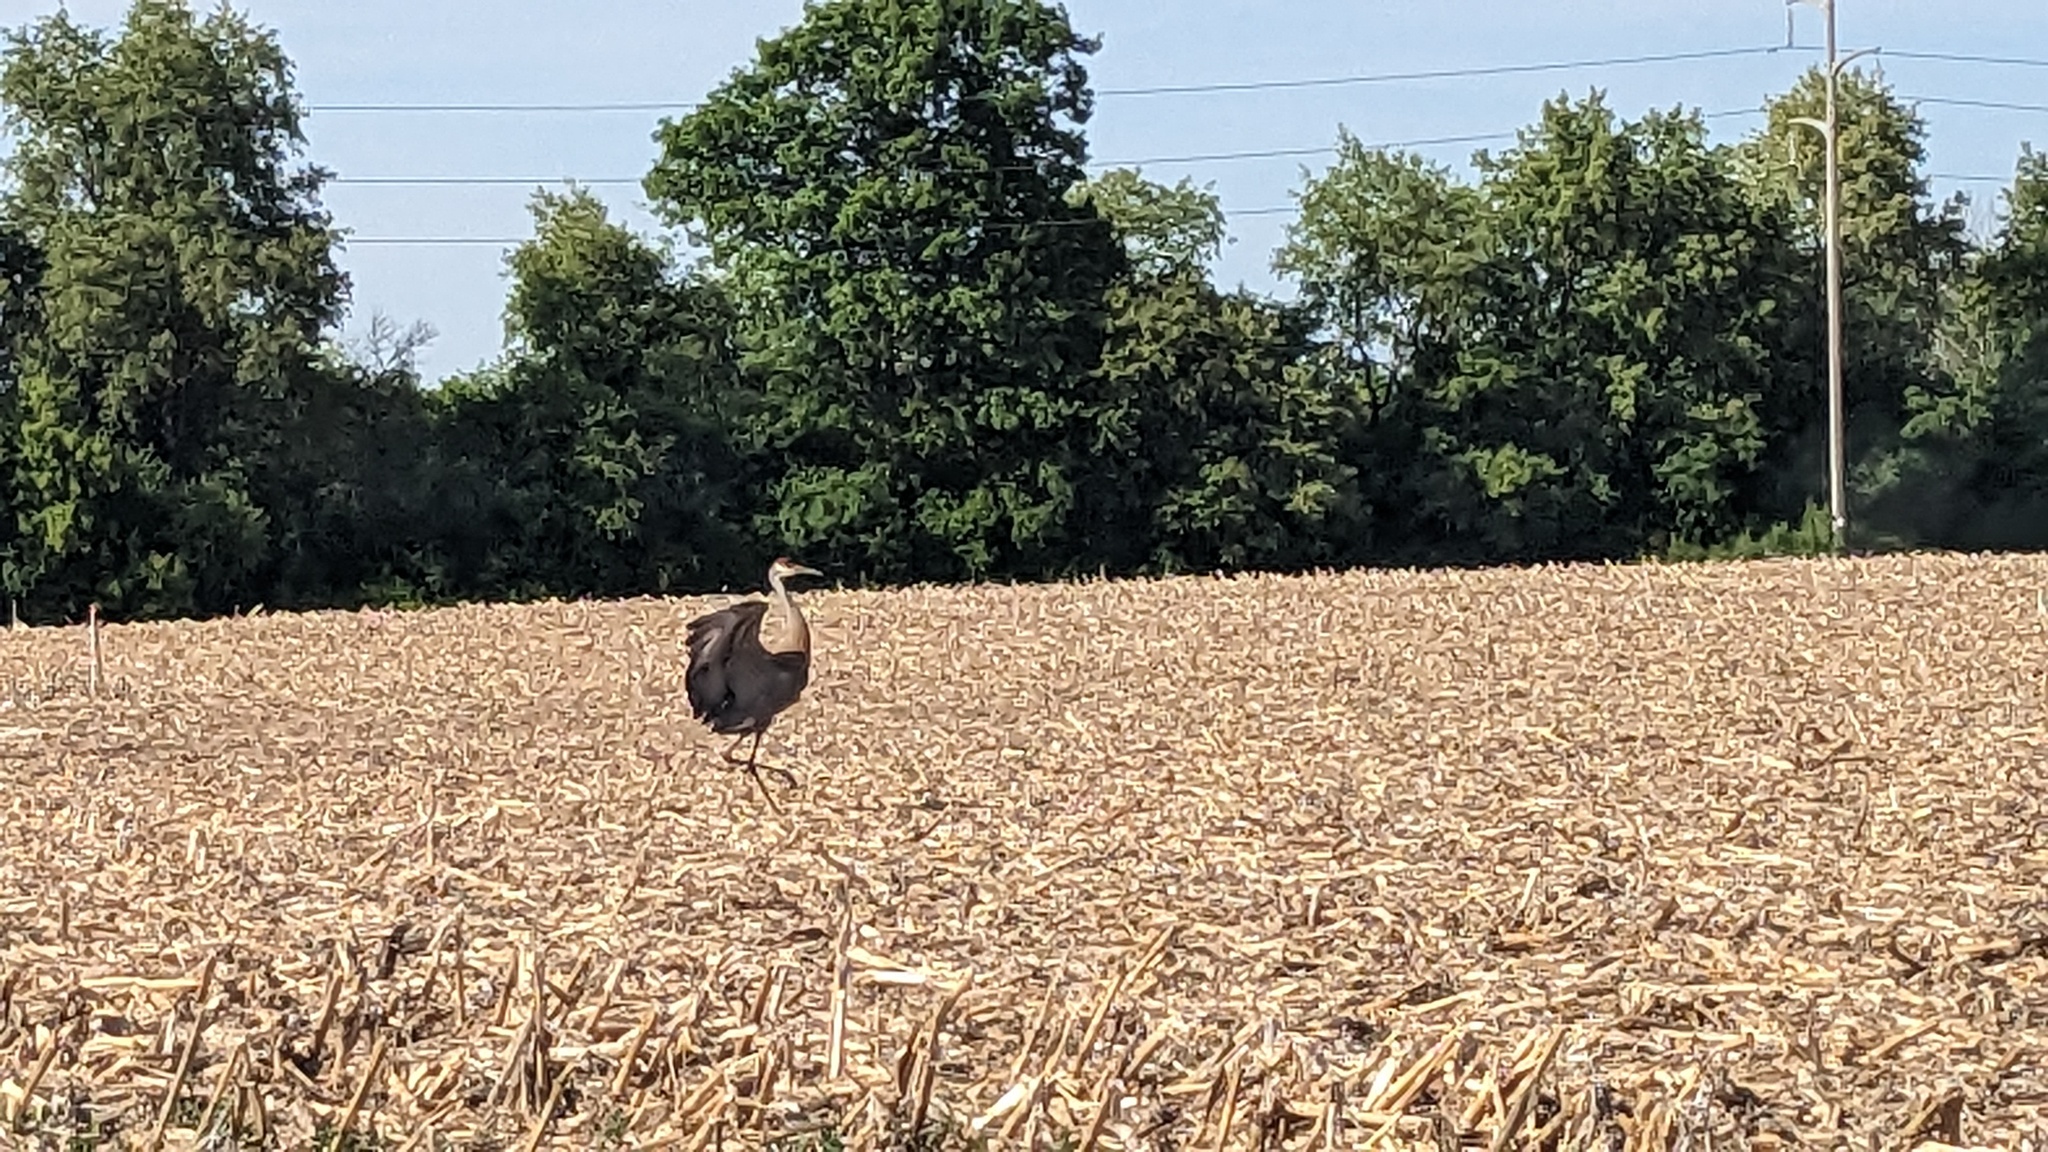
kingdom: Animalia
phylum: Chordata
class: Aves
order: Gruiformes
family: Gruidae
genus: Grus
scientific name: Grus canadensis
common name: Sandhill crane
